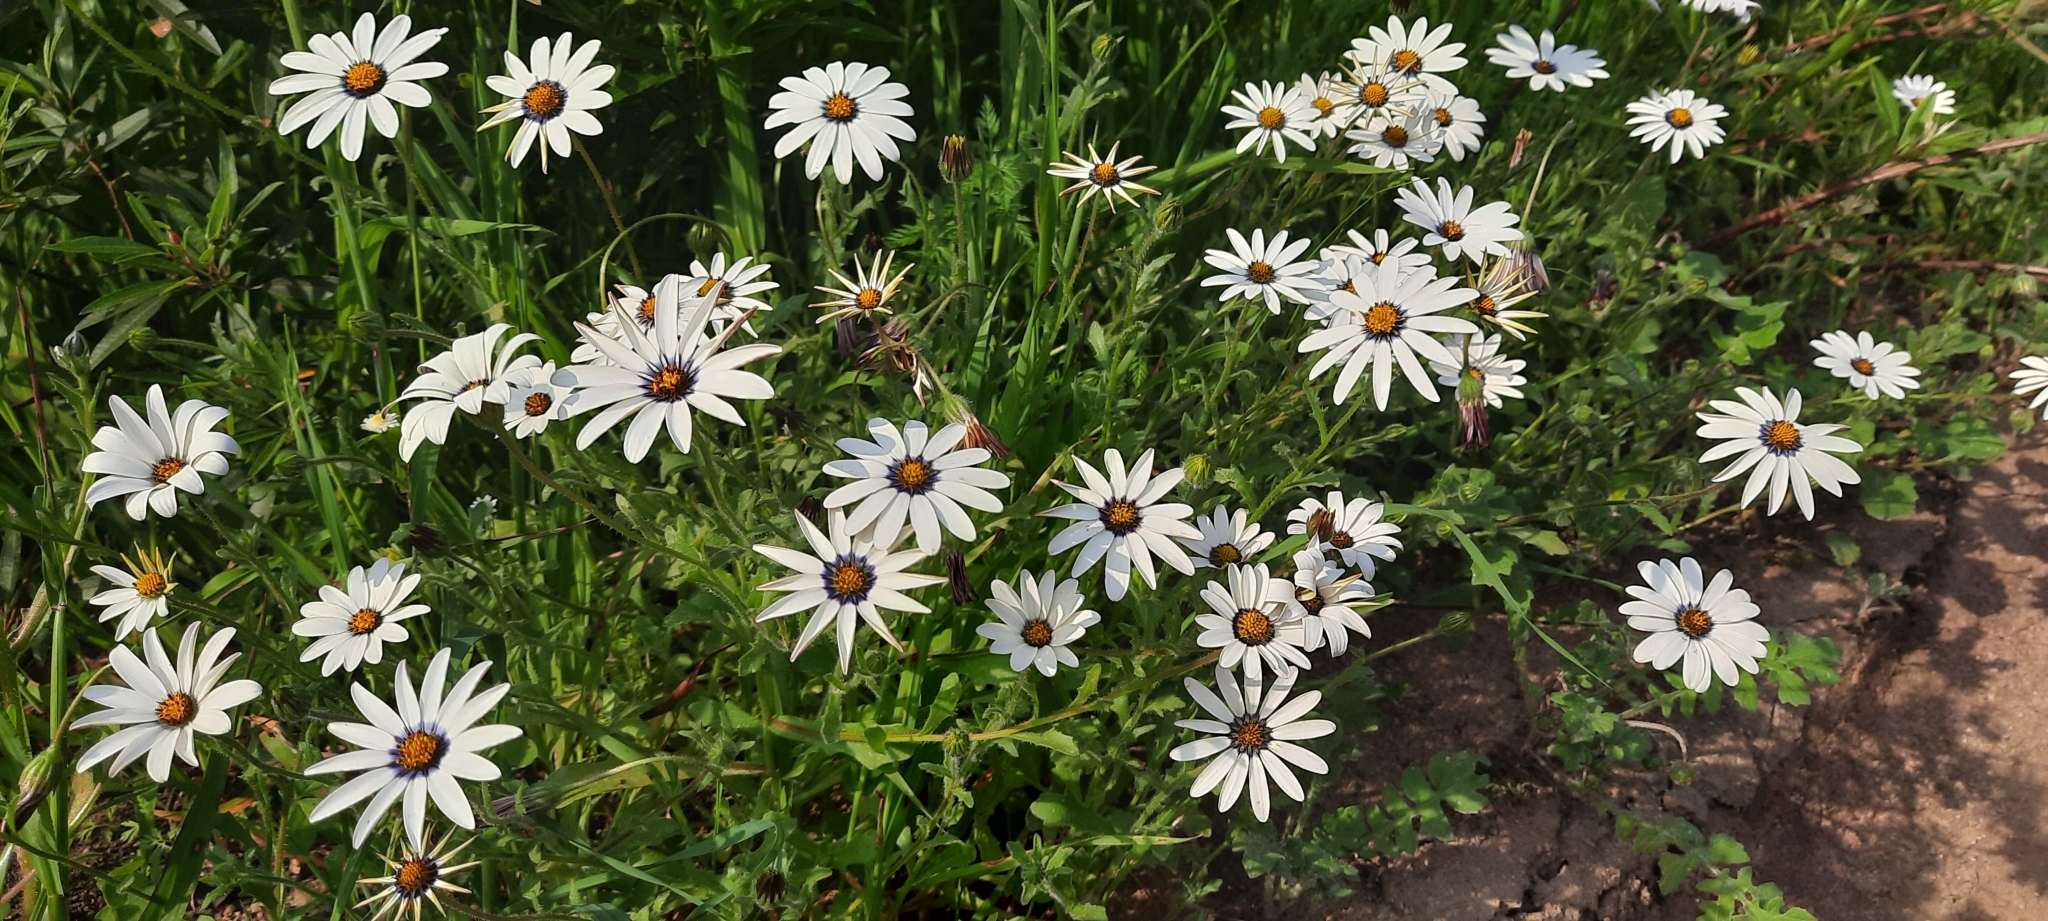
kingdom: Plantae
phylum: Tracheophyta
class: Magnoliopsida
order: Asterales
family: Asteraceae
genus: Dimorphotheca
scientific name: Dimorphotheca pluvialis
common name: Weather prophet
